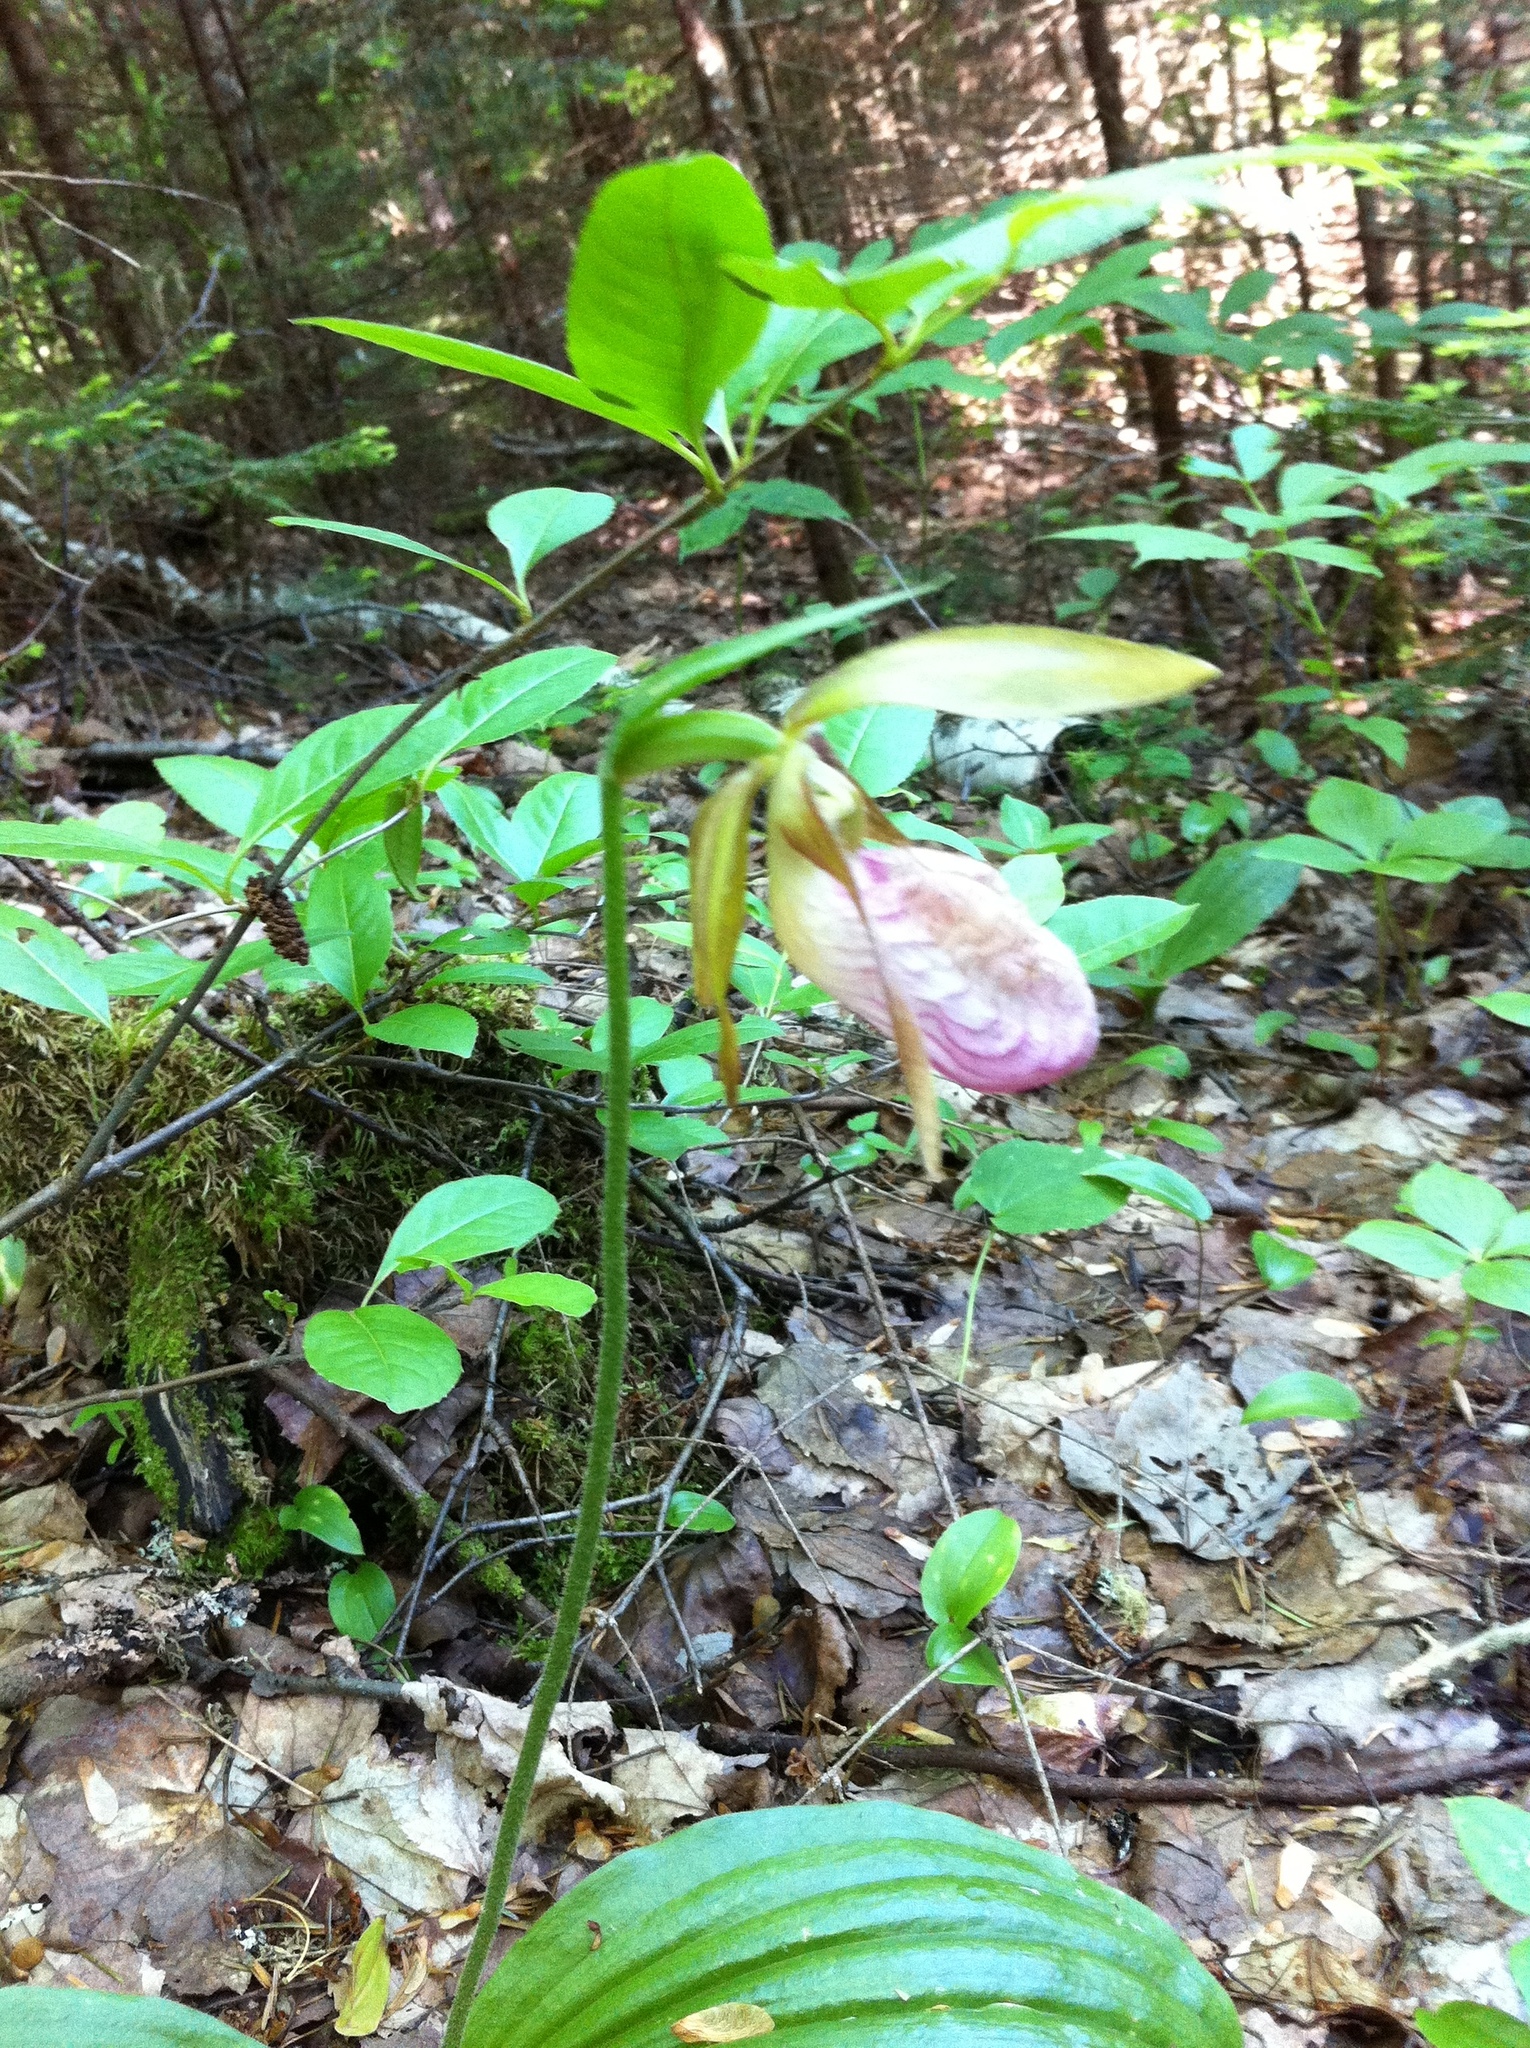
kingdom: Plantae
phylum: Tracheophyta
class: Liliopsida
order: Asparagales
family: Orchidaceae
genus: Cypripedium
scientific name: Cypripedium acaule
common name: Pink lady's-slipper
